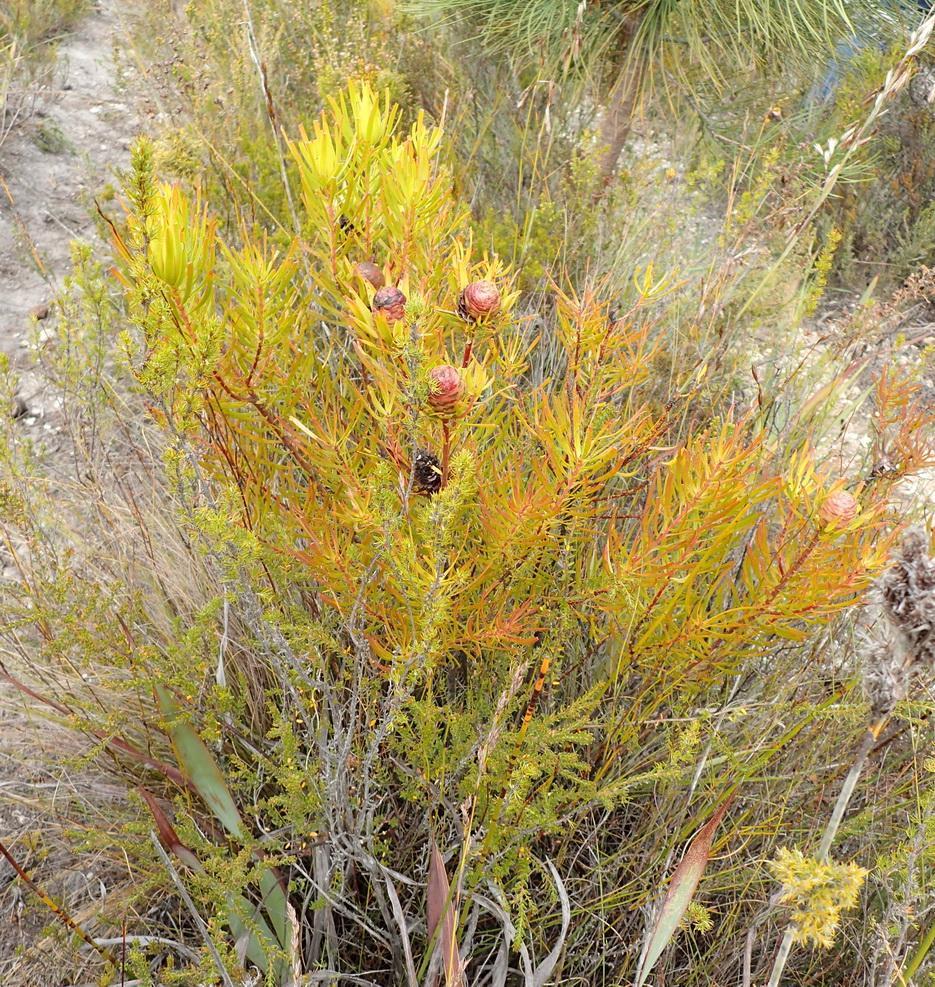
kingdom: Plantae
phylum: Tracheophyta
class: Magnoliopsida
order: Proteales
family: Proteaceae
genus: Leucadendron
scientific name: Leucadendron spissifolium
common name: Spear-leaf conebush
